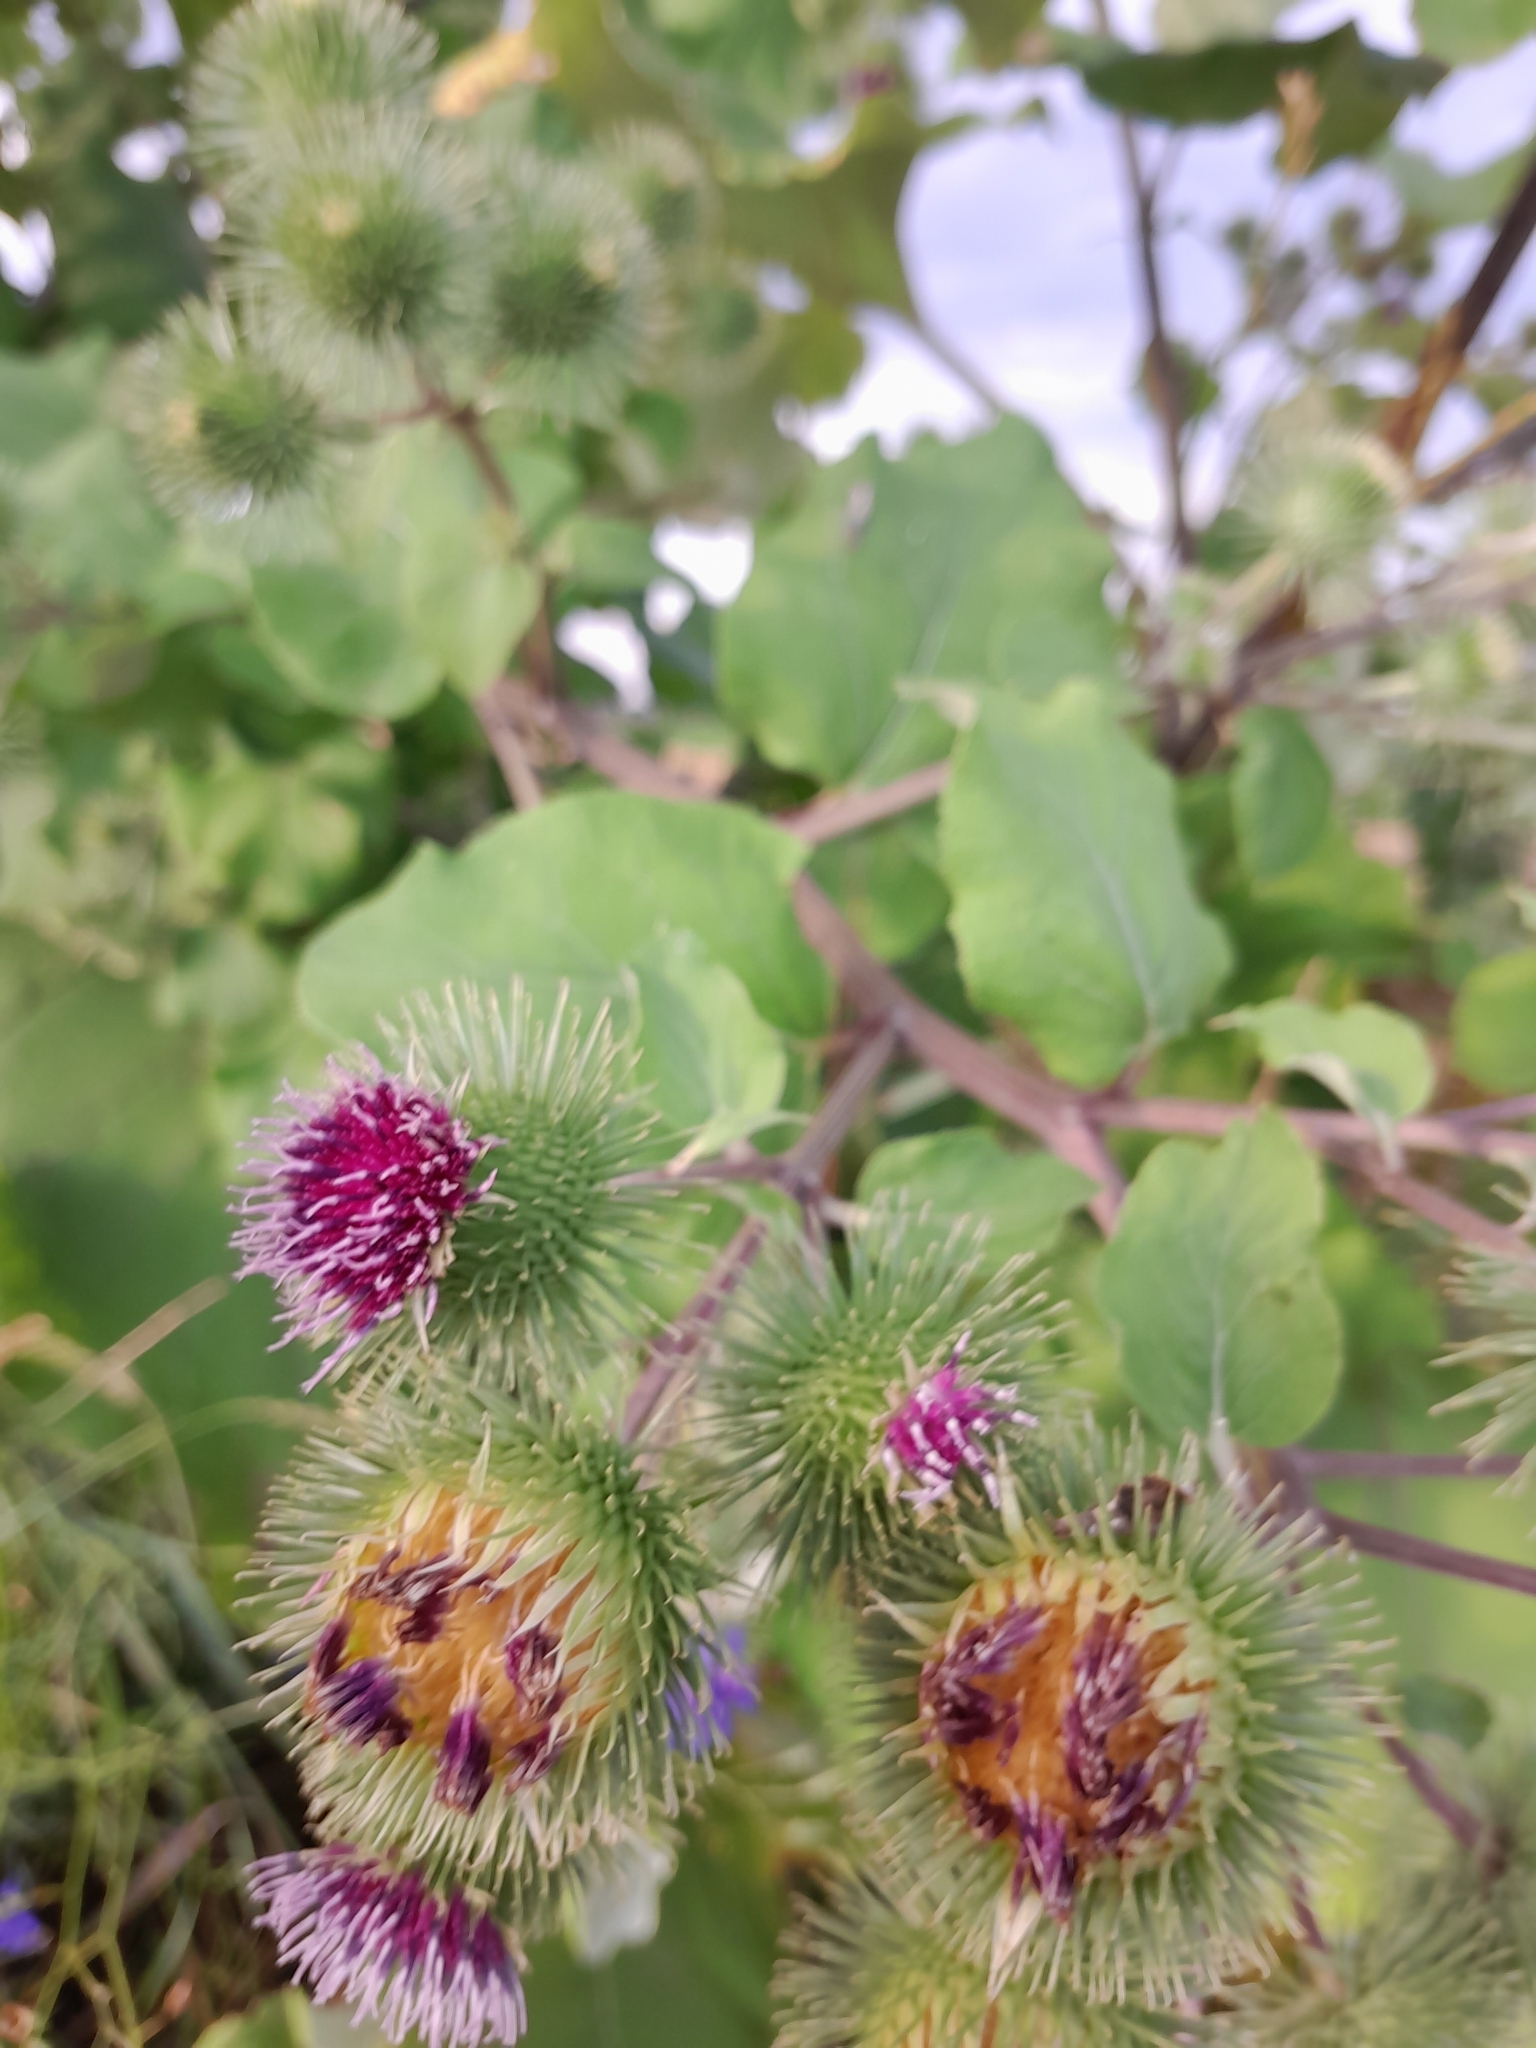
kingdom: Plantae
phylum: Tracheophyta
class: Magnoliopsida
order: Asterales
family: Asteraceae
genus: Arctium
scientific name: Arctium lappa
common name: Greater burdock
